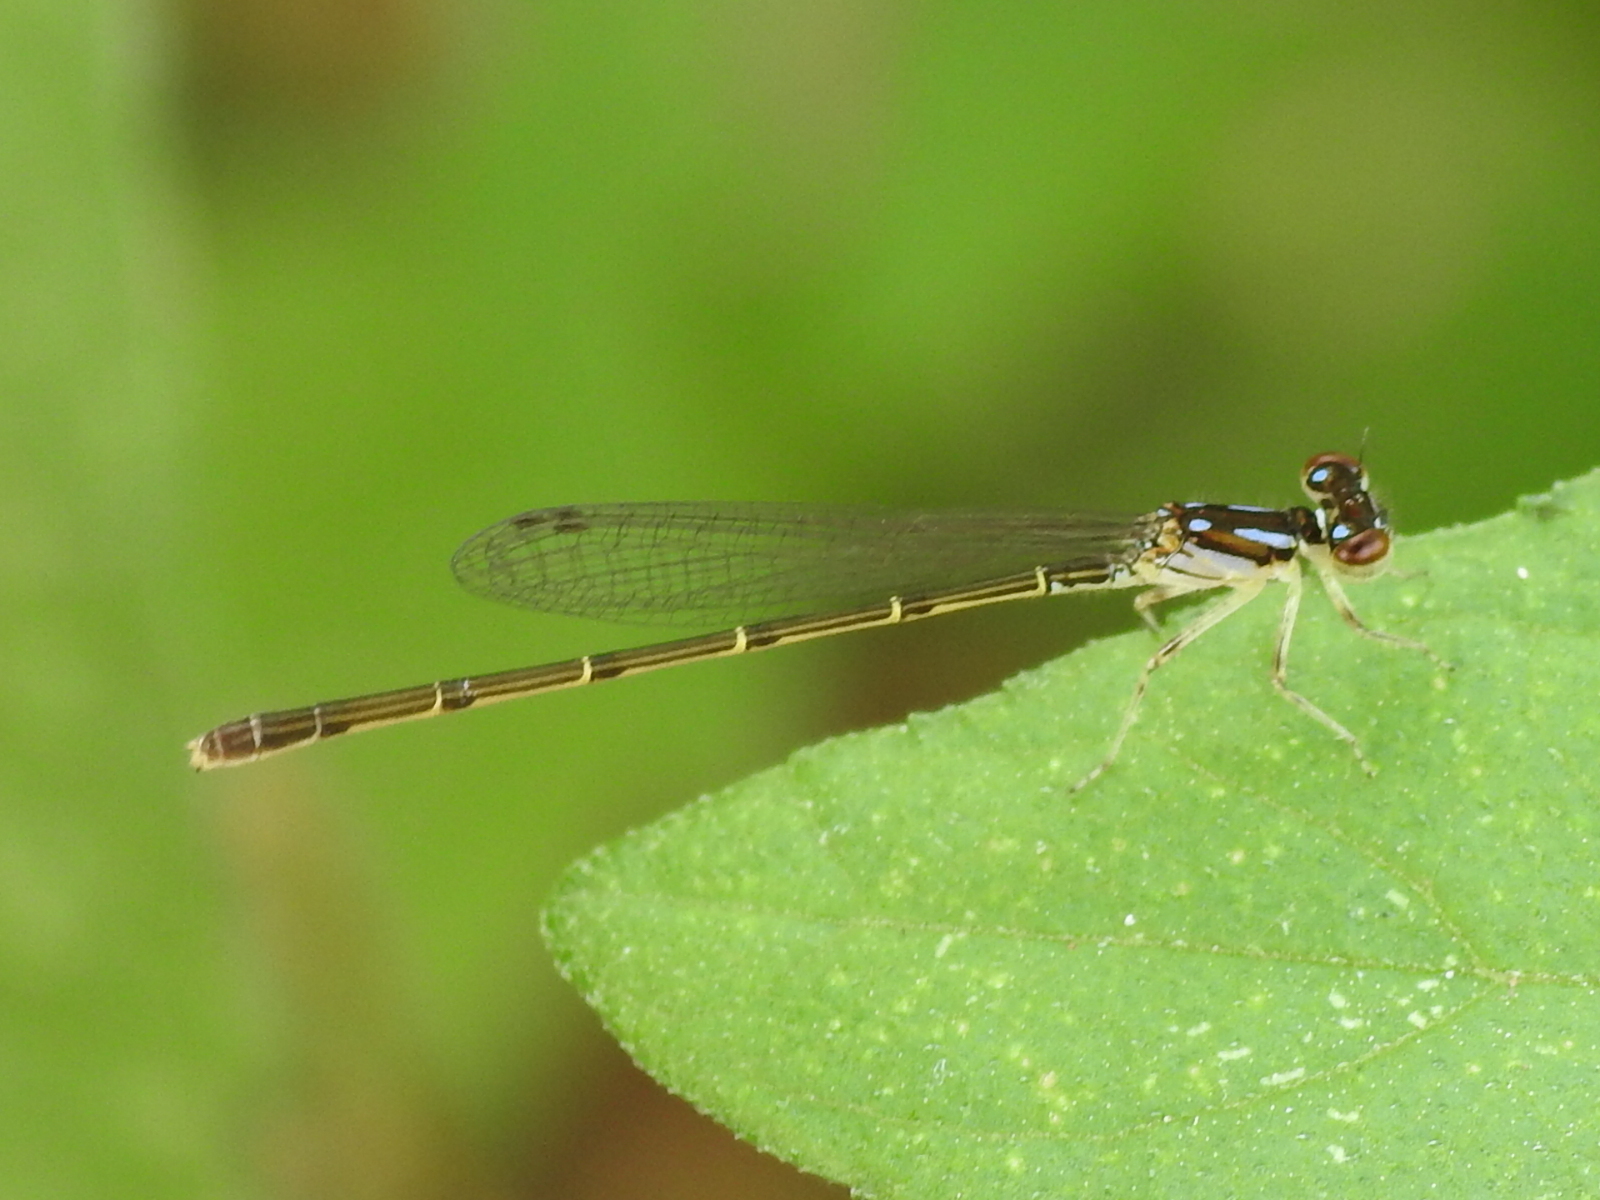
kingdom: Animalia
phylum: Arthropoda
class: Insecta
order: Odonata
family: Coenagrionidae
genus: Ischnura
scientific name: Ischnura posita
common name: Fragile forktail
